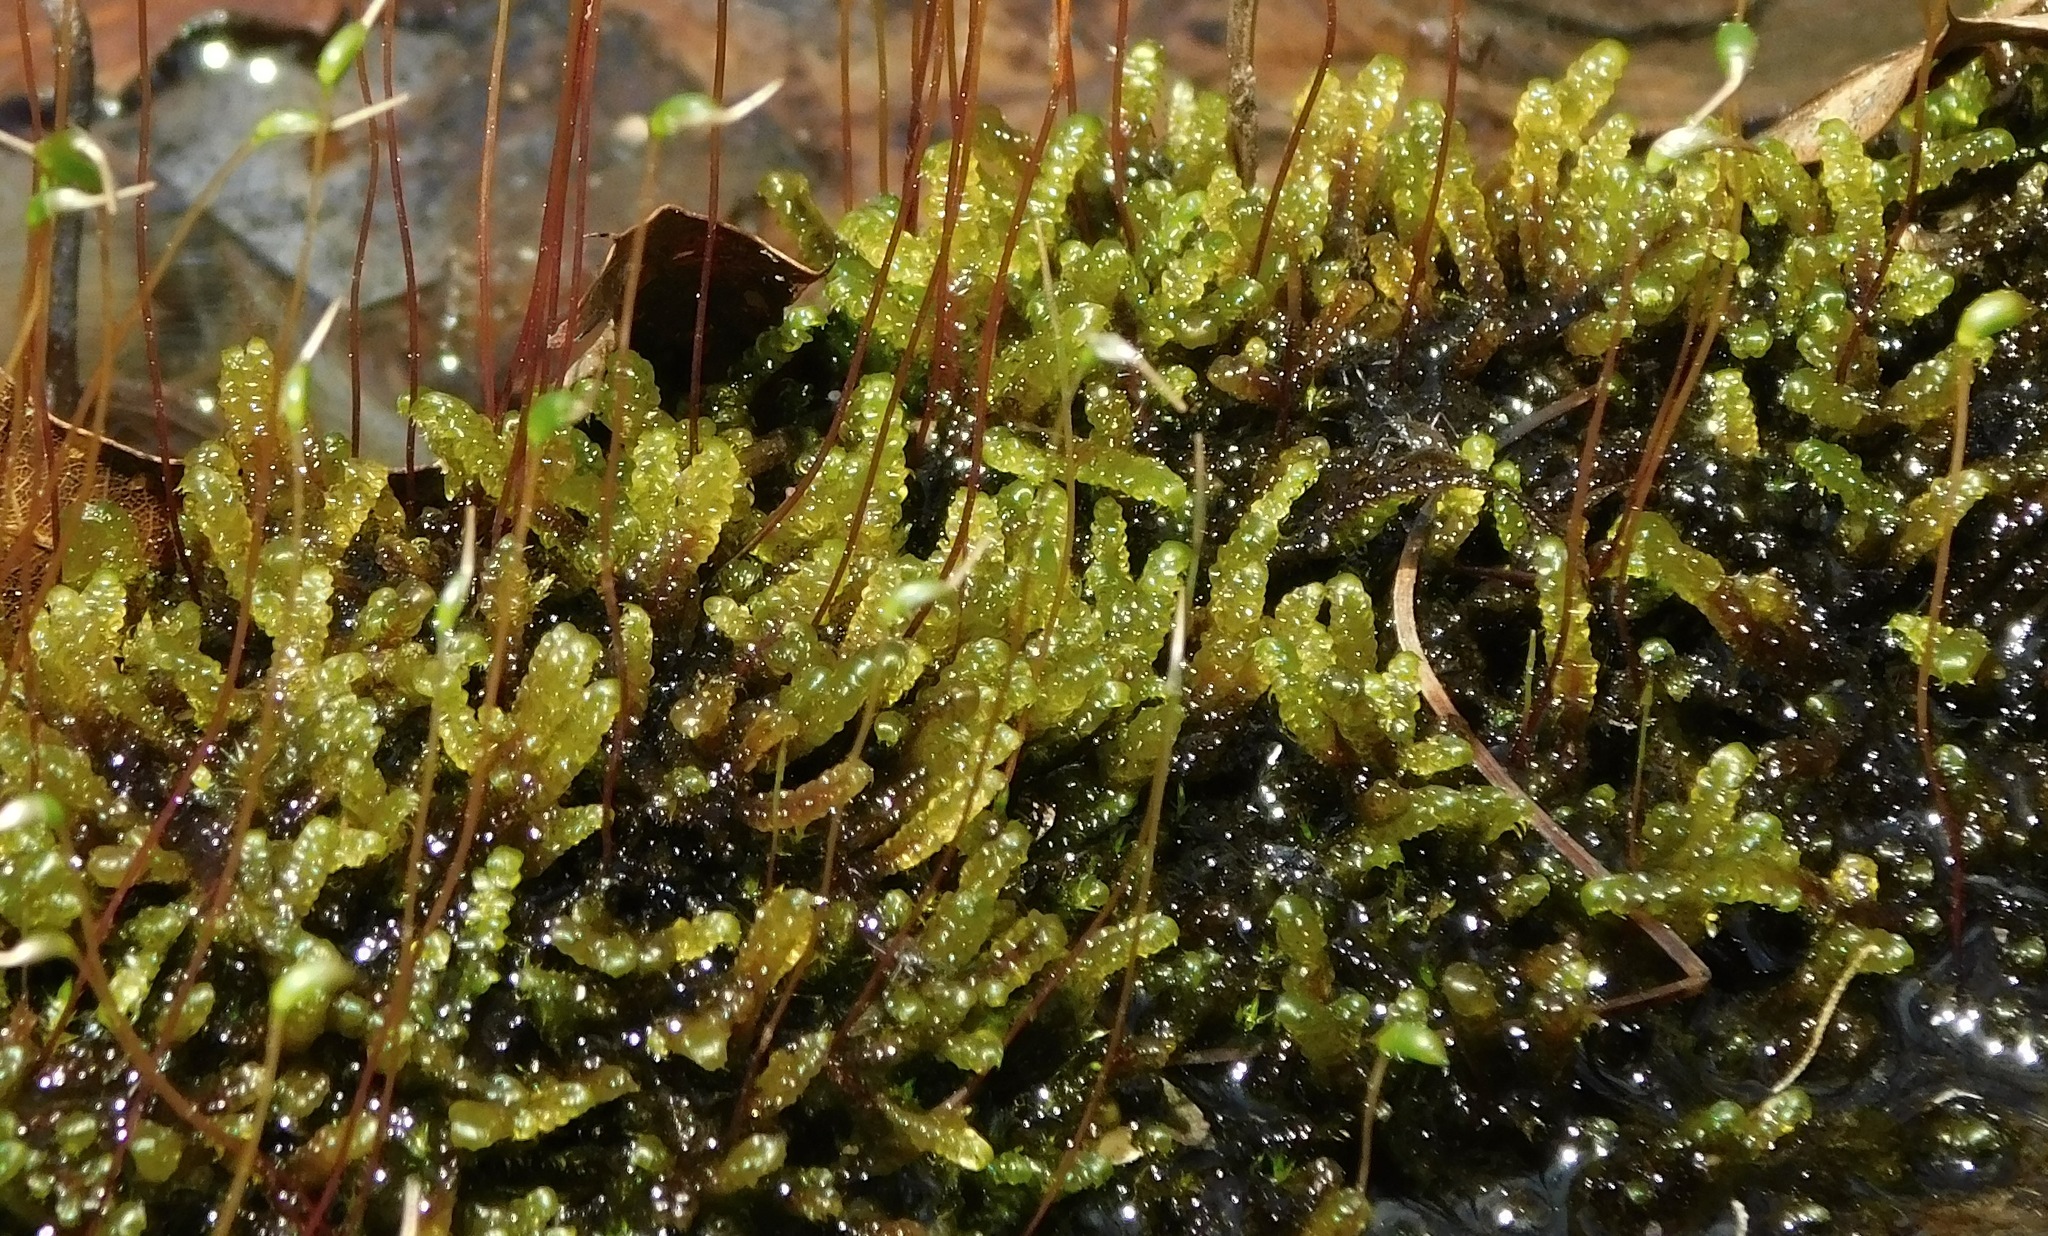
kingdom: Plantae
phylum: Bryophyta
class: Bryopsida
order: Hypnales
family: Scorpidiaceae
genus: Hygrohypnella
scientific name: Hygrohypnella ochracea
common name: Hygrohypnum moss
